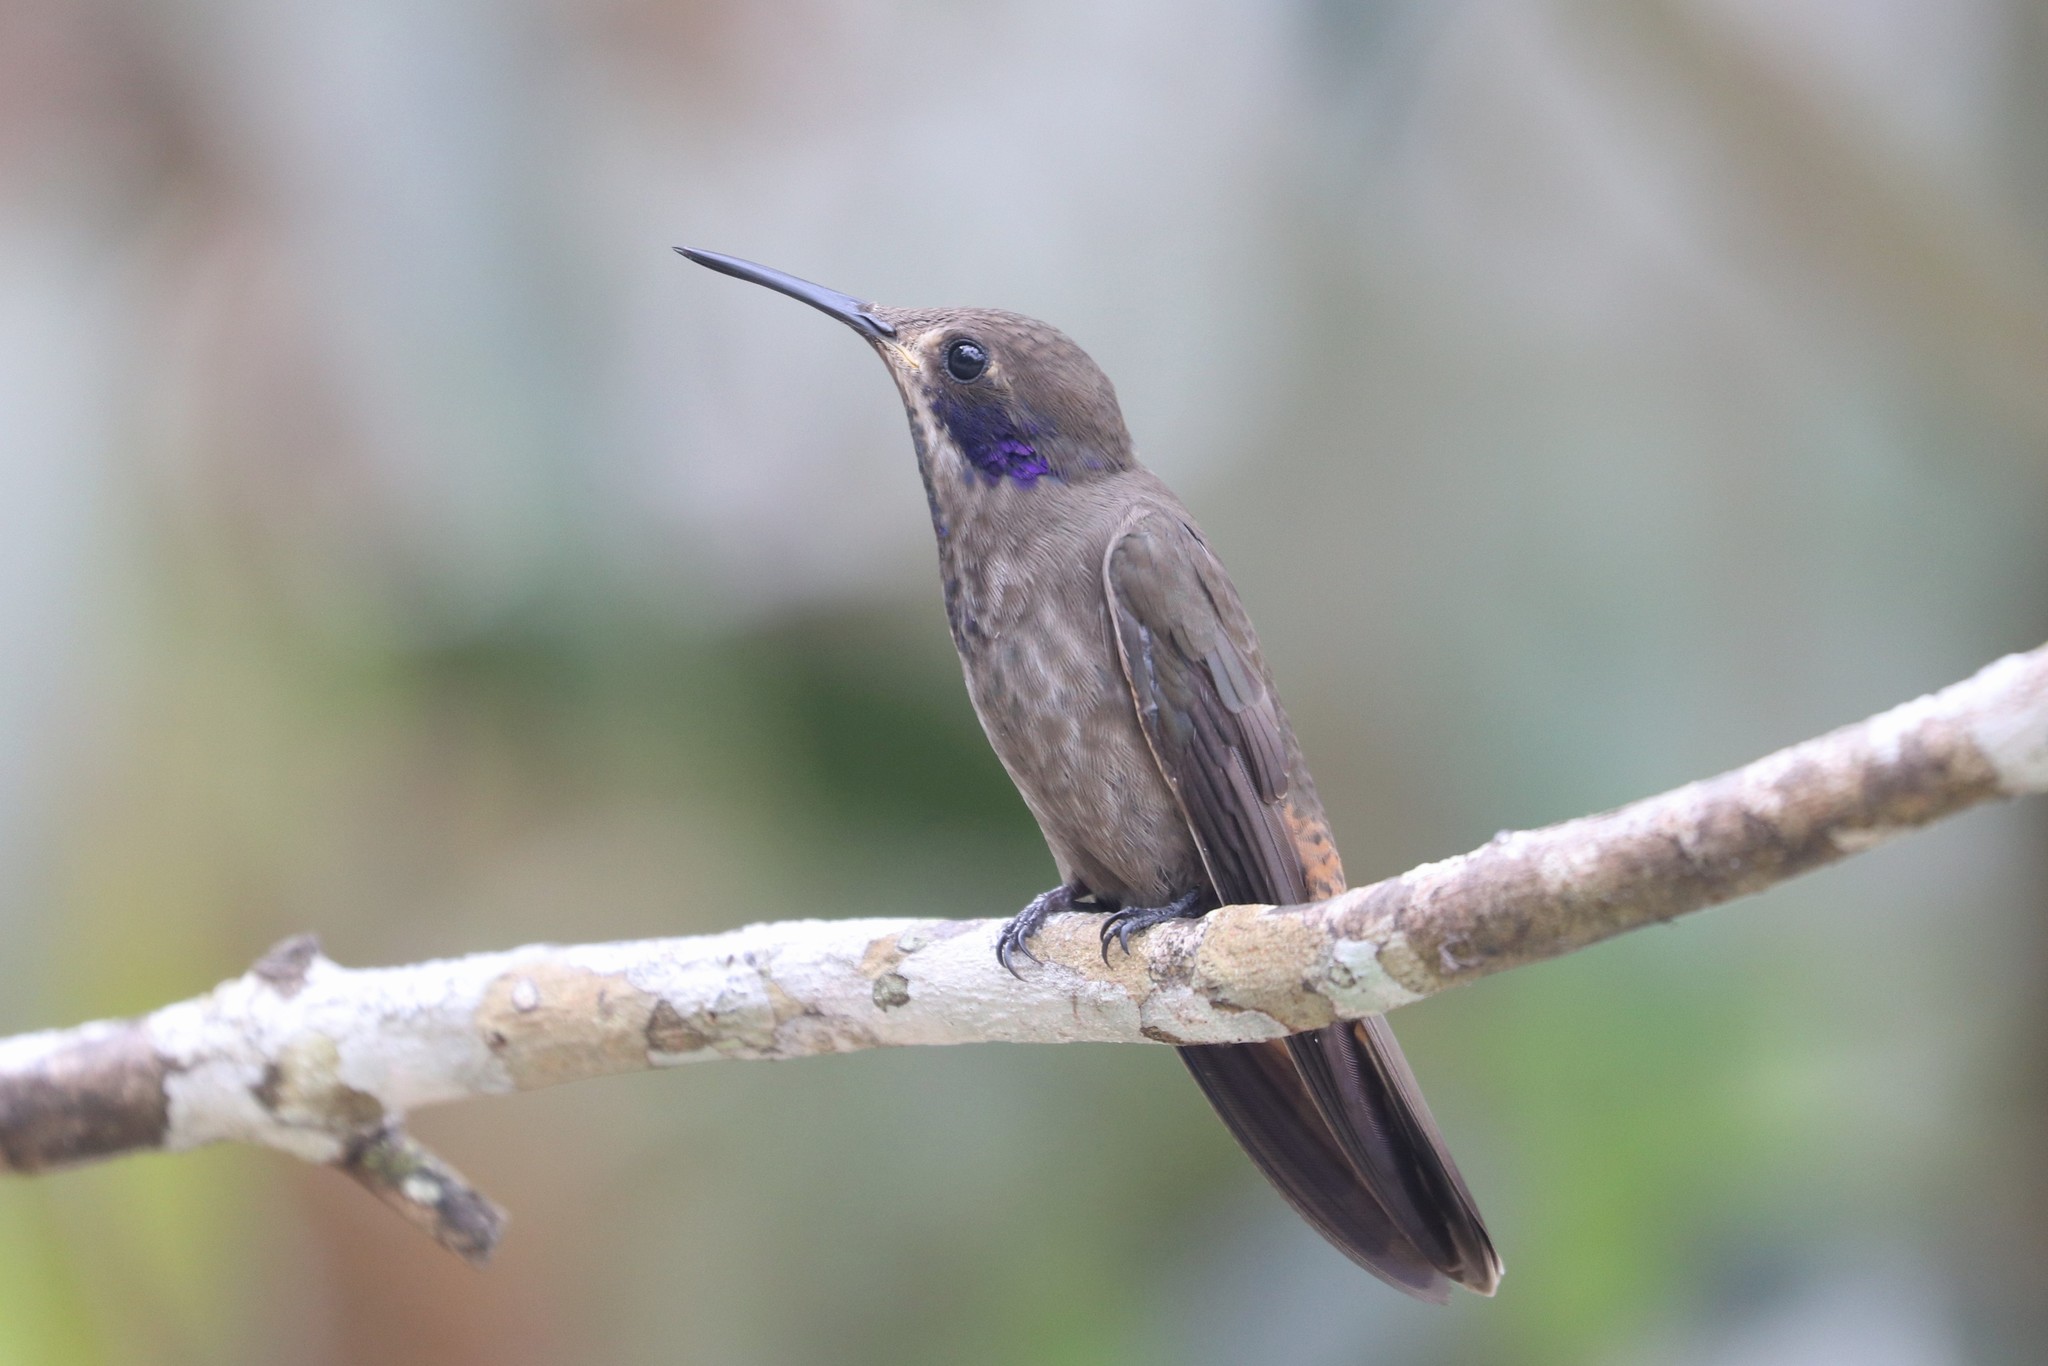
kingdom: Animalia
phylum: Chordata
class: Aves
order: Apodiformes
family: Trochilidae
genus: Colibri
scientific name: Colibri delphinae
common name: Brown violetear
